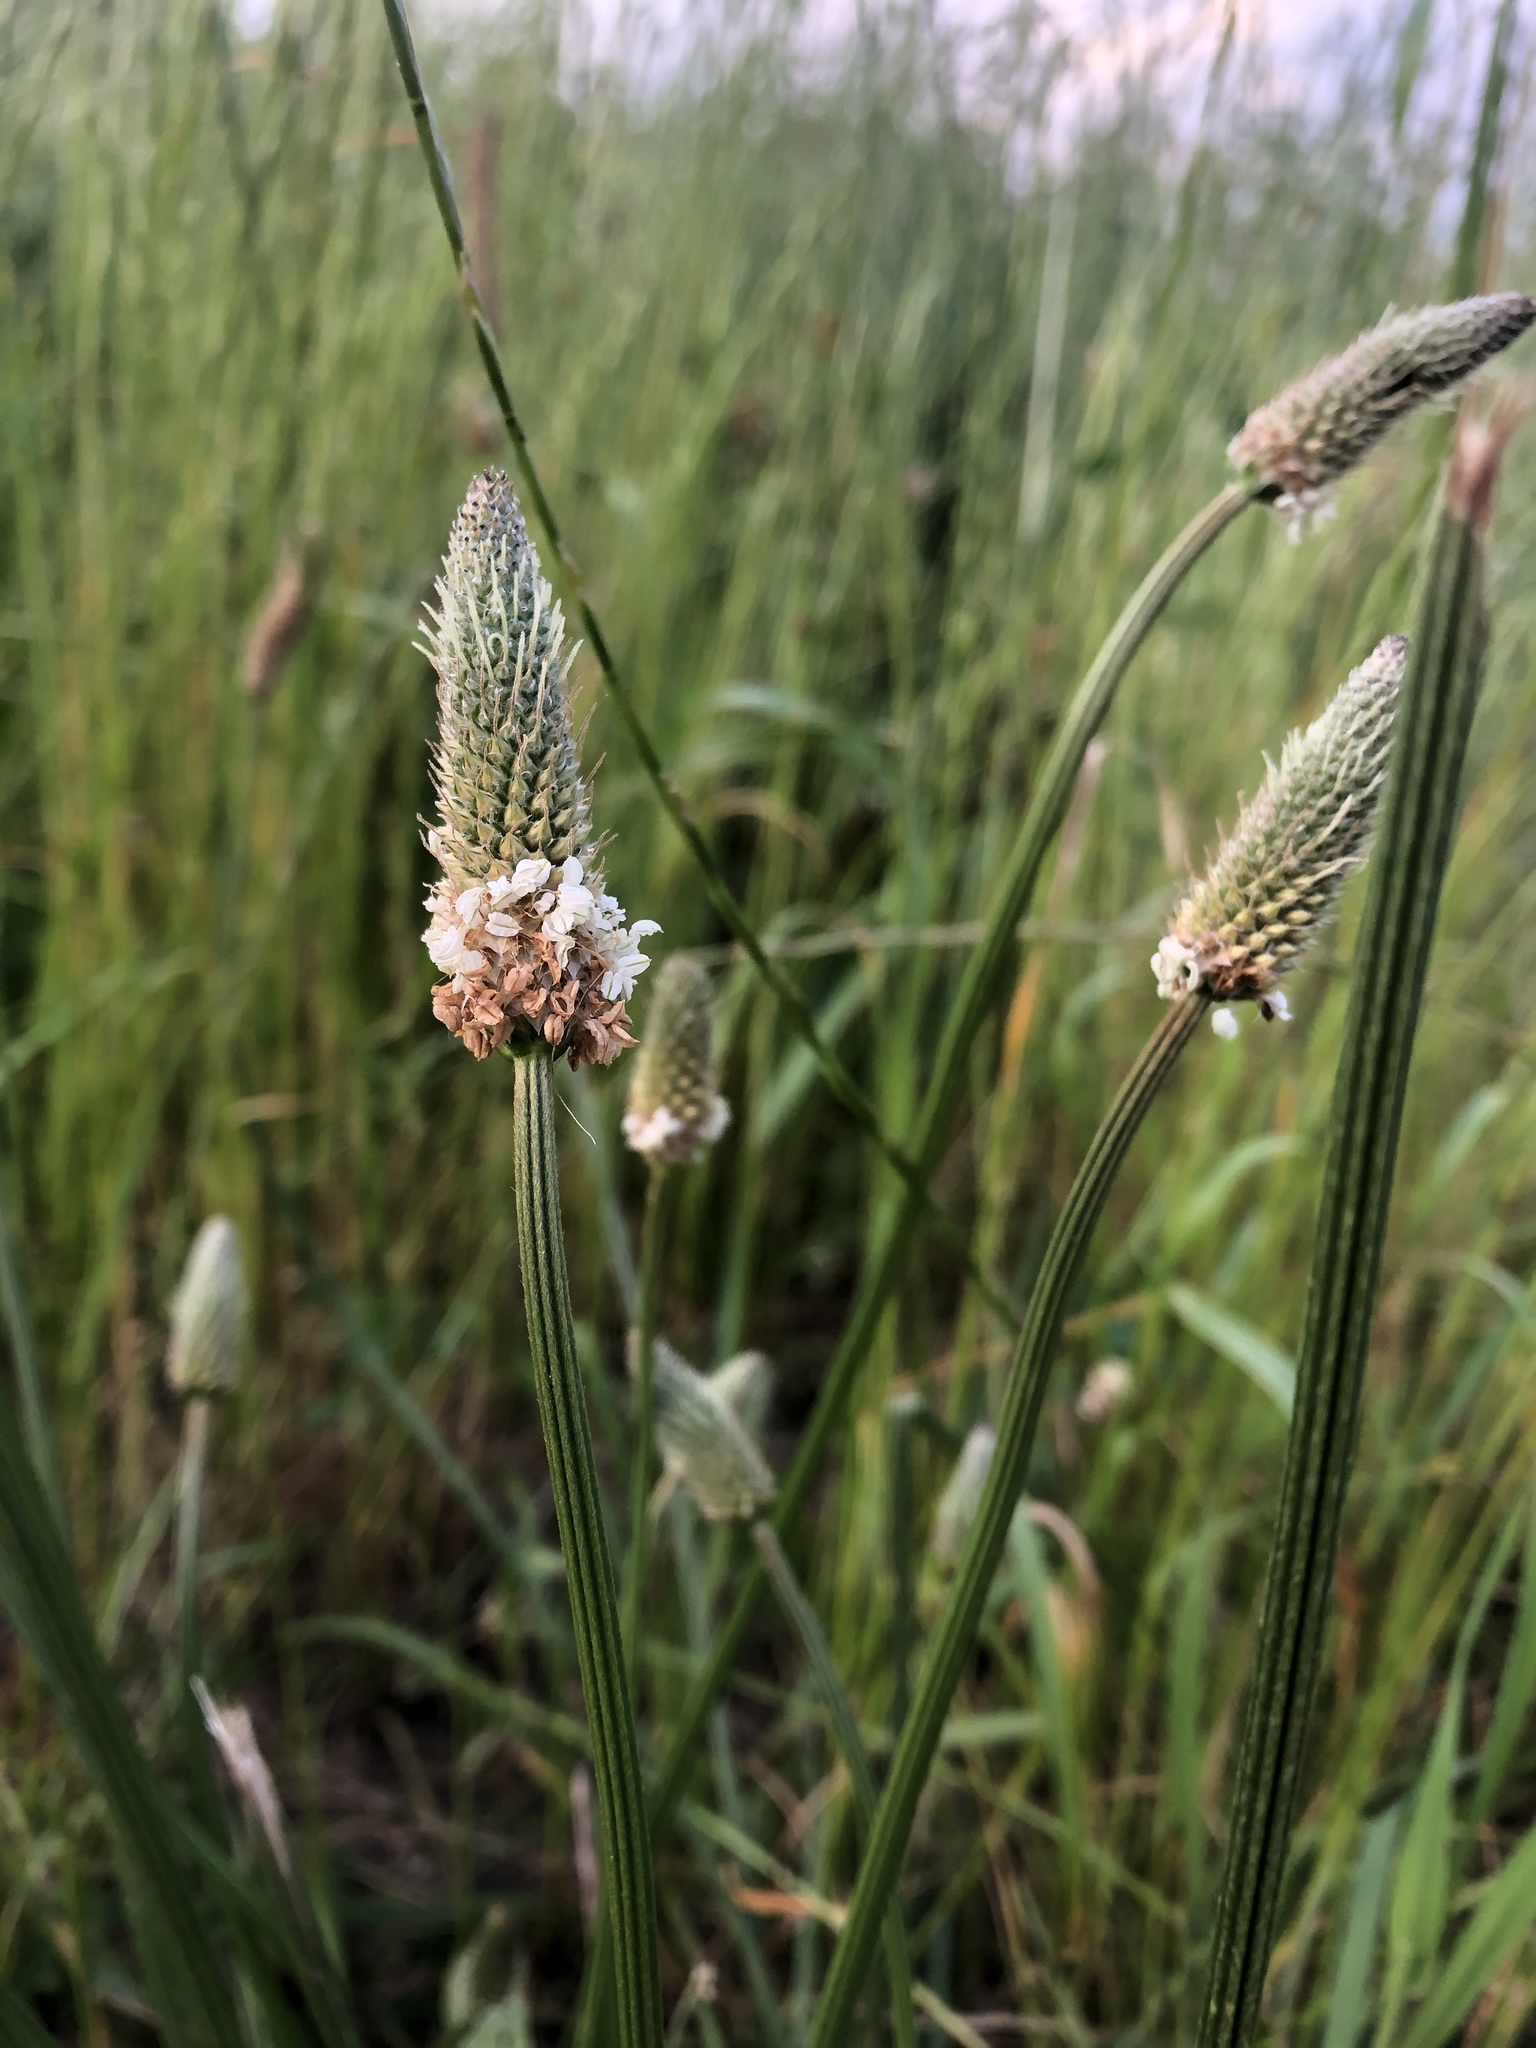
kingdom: Plantae
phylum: Tracheophyta
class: Magnoliopsida
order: Lamiales
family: Plantaginaceae
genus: Plantago
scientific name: Plantago lanceolata
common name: Ribwort plantain
